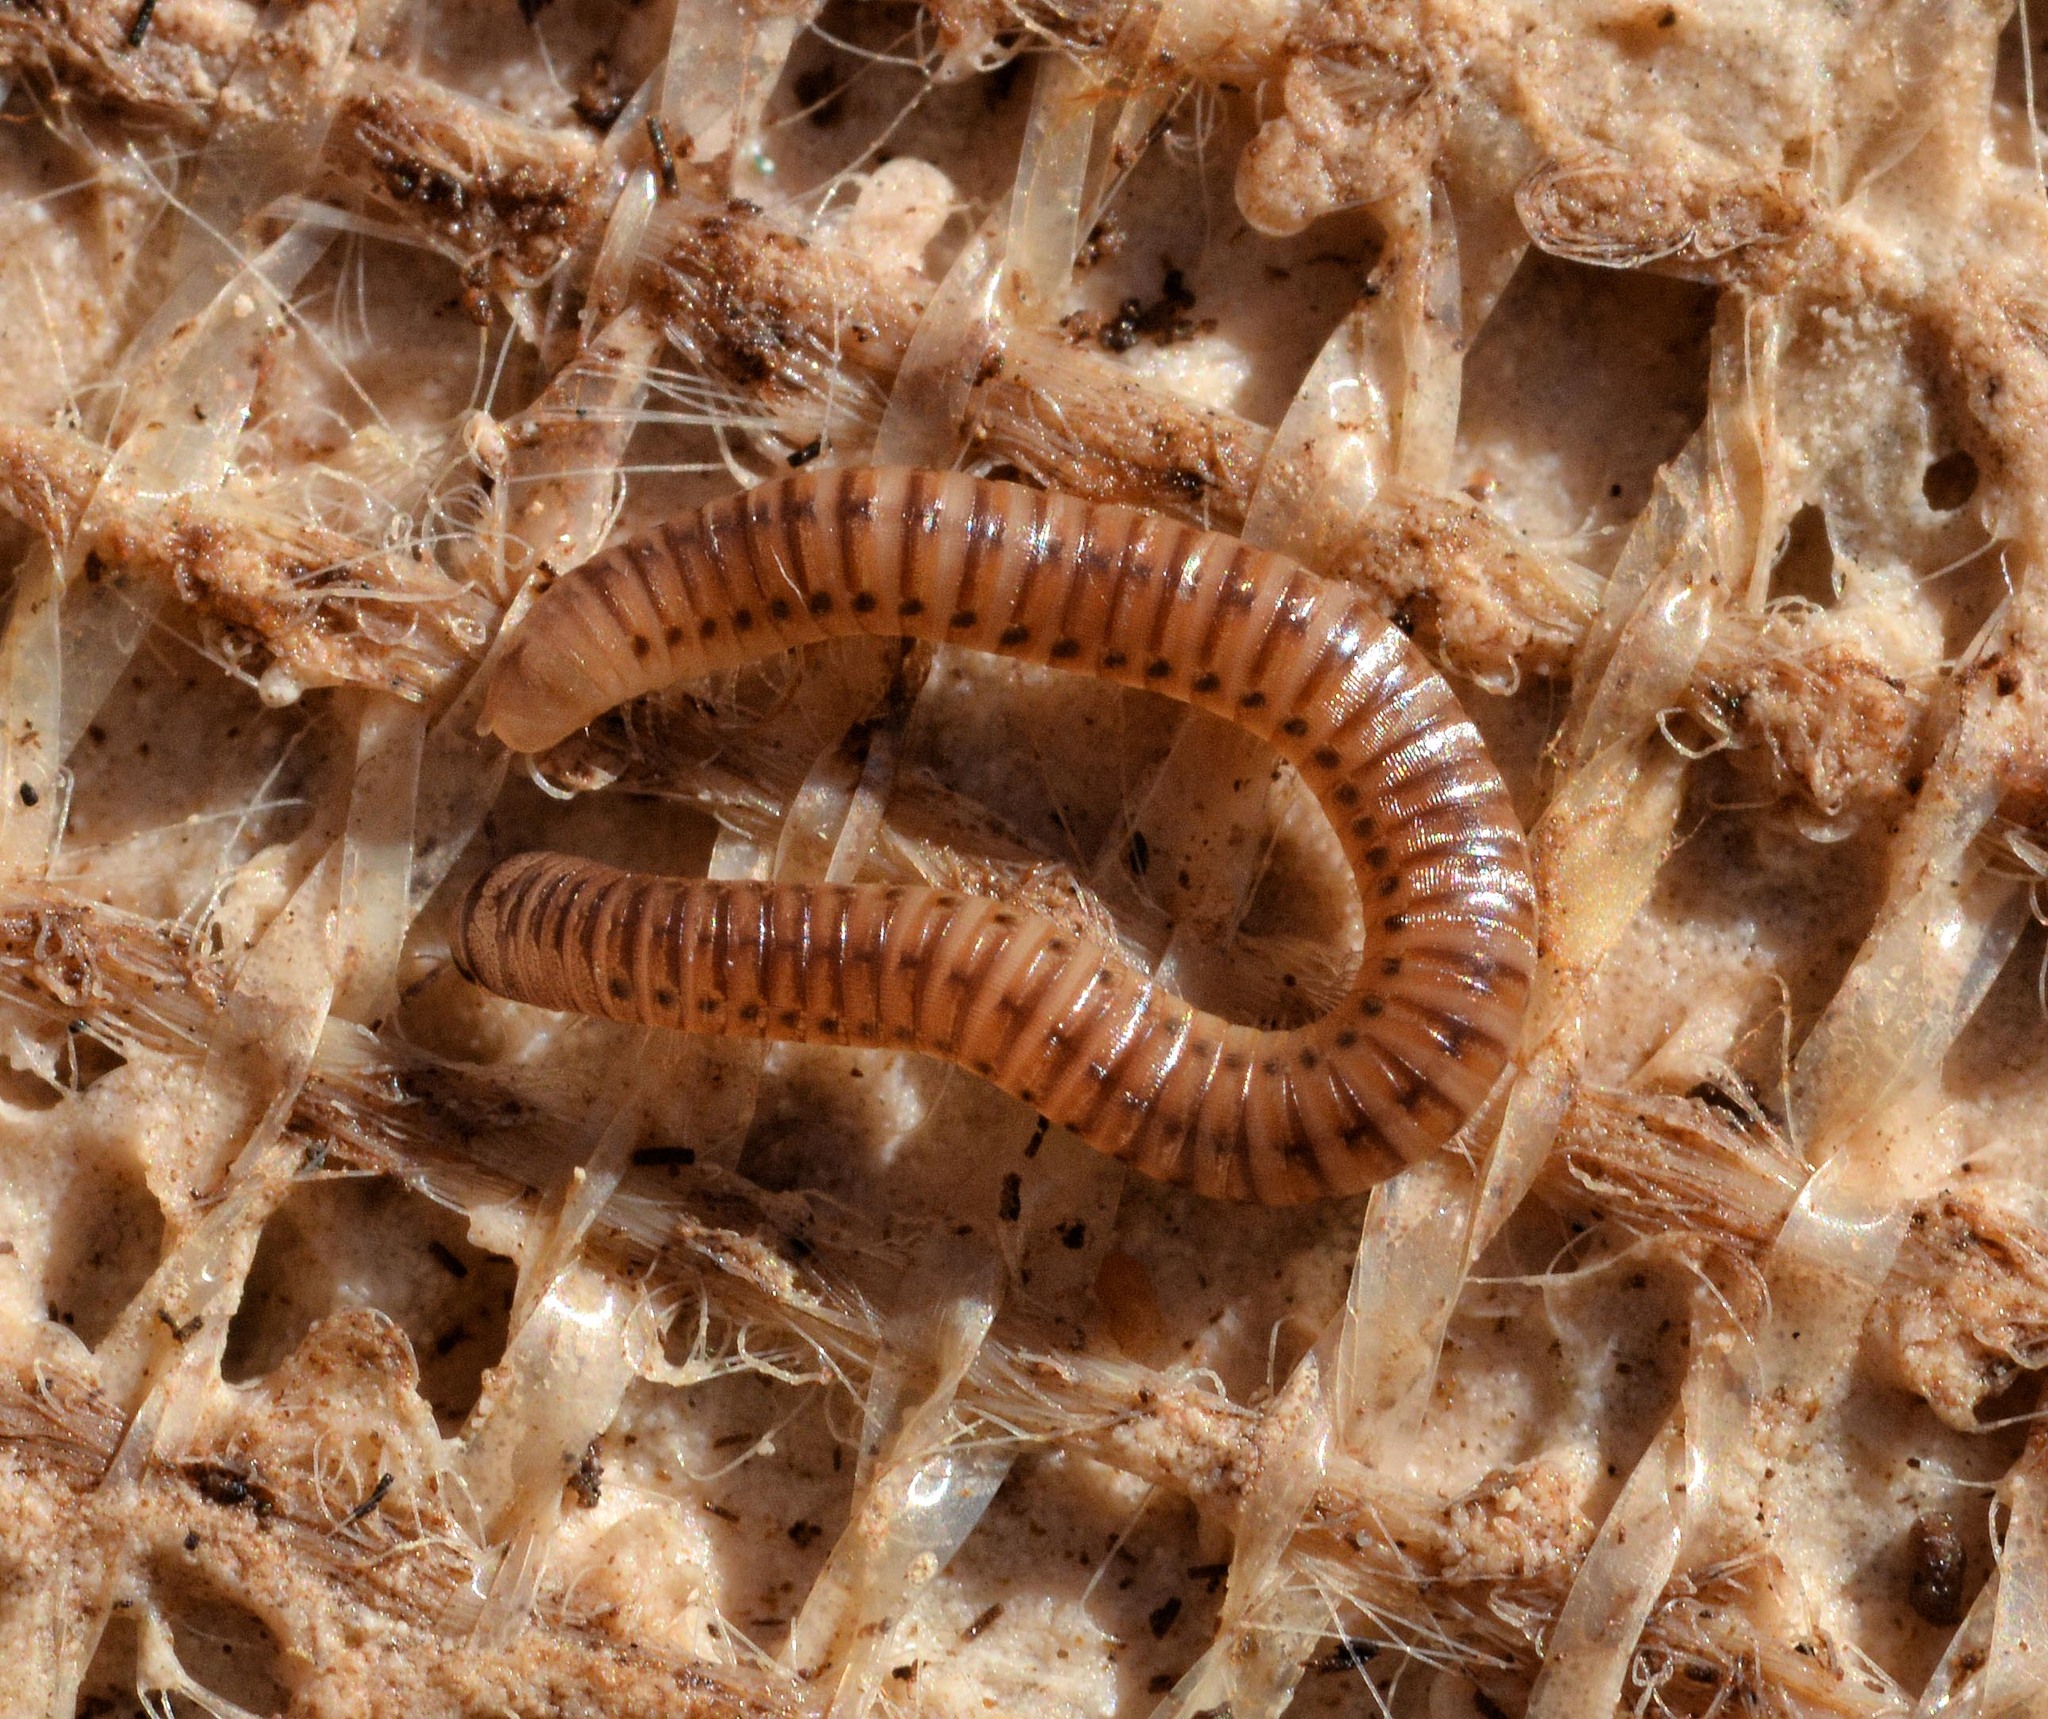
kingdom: Animalia
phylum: Arthropoda
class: Diplopoda
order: Julida
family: Julidae
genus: Cylindroiulus
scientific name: Cylindroiulus punctatus
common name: Blunt-tailed millipede
